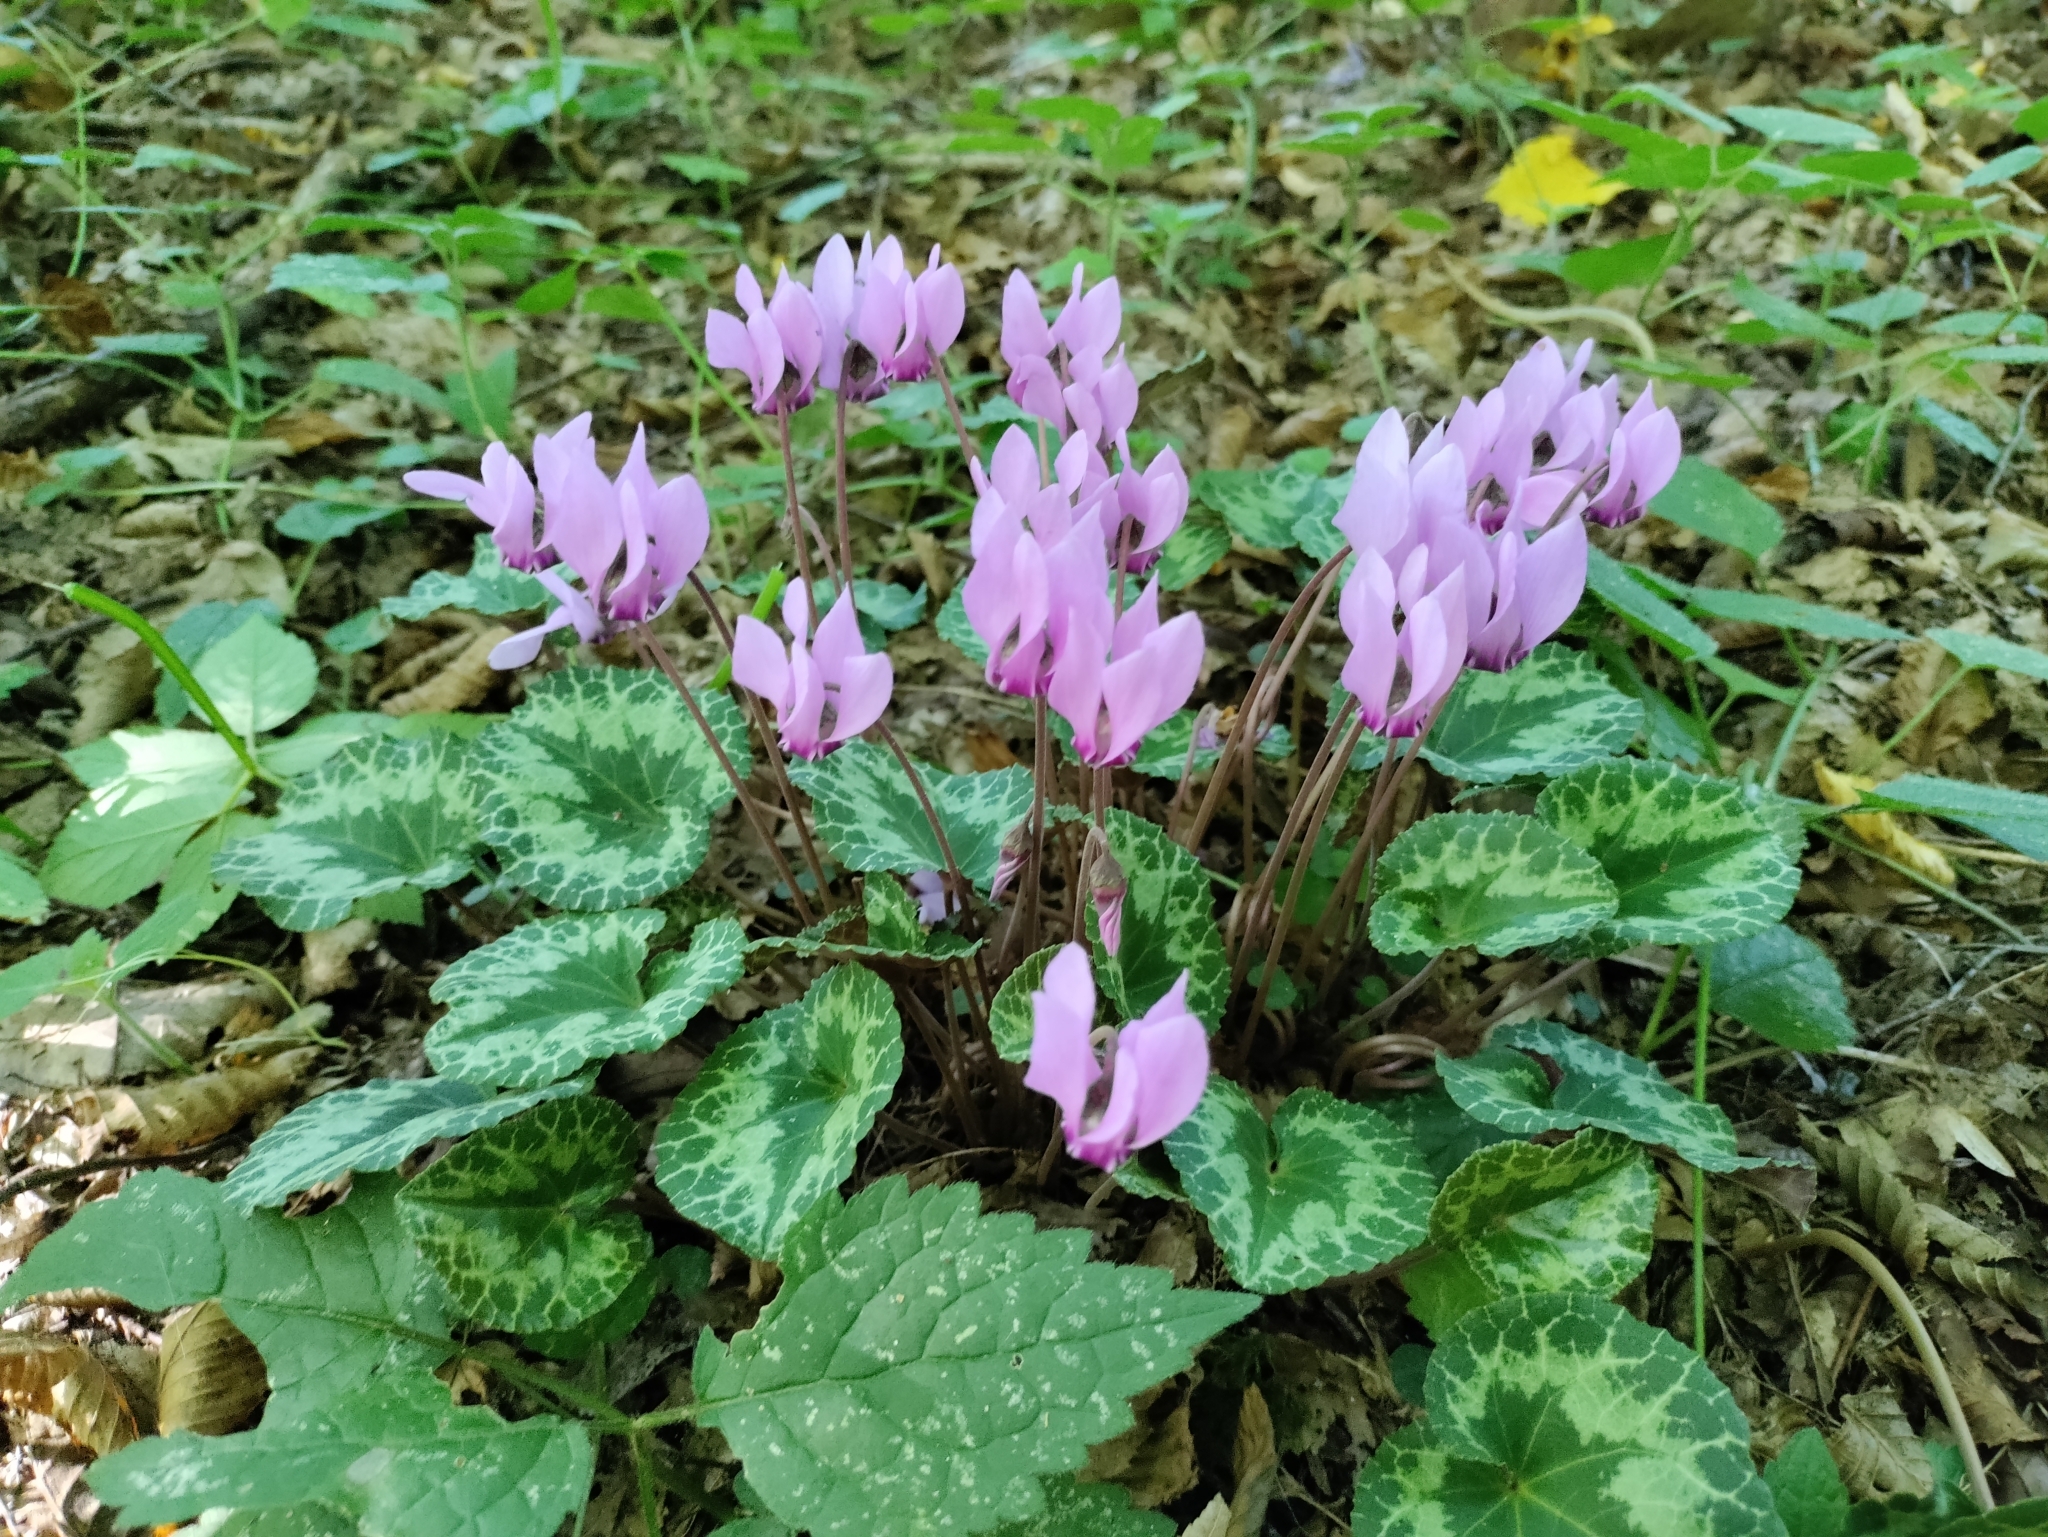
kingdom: Plantae
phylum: Tracheophyta
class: Magnoliopsida
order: Ericales
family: Primulaceae
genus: Cyclamen
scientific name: Cyclamen purpurascens
